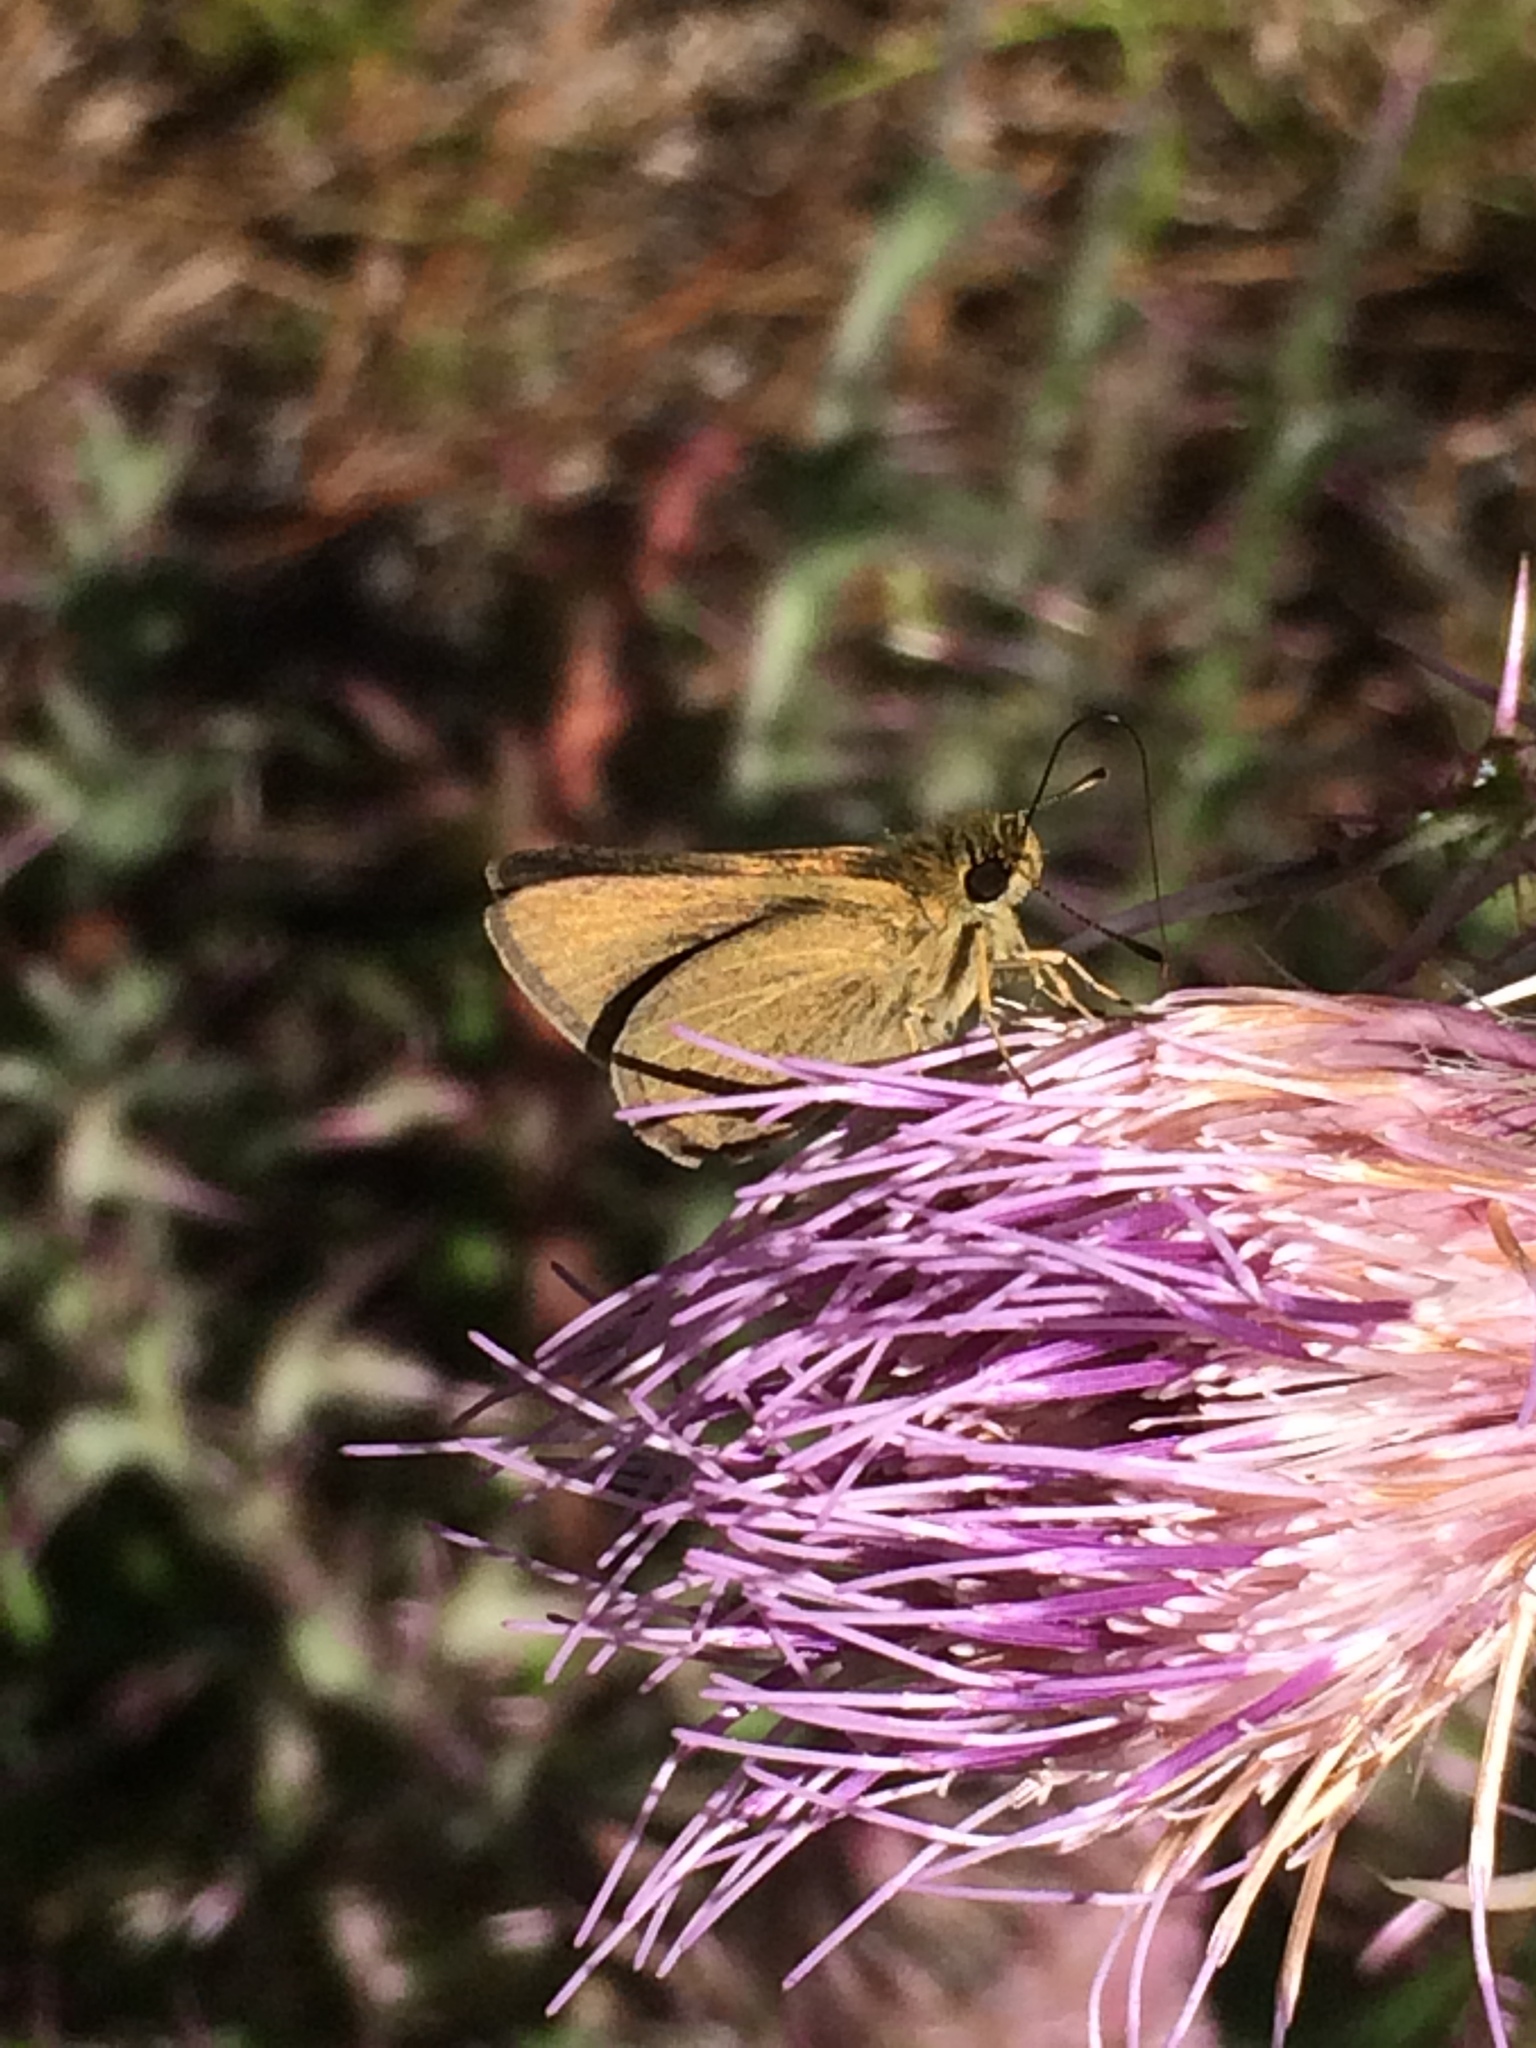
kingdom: Animalia
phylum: Arthropoda
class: Insecta
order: Lepidoptera
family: Hesperiidae
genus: Nastra
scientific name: Nastra lherminier
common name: Swarthy skipper
